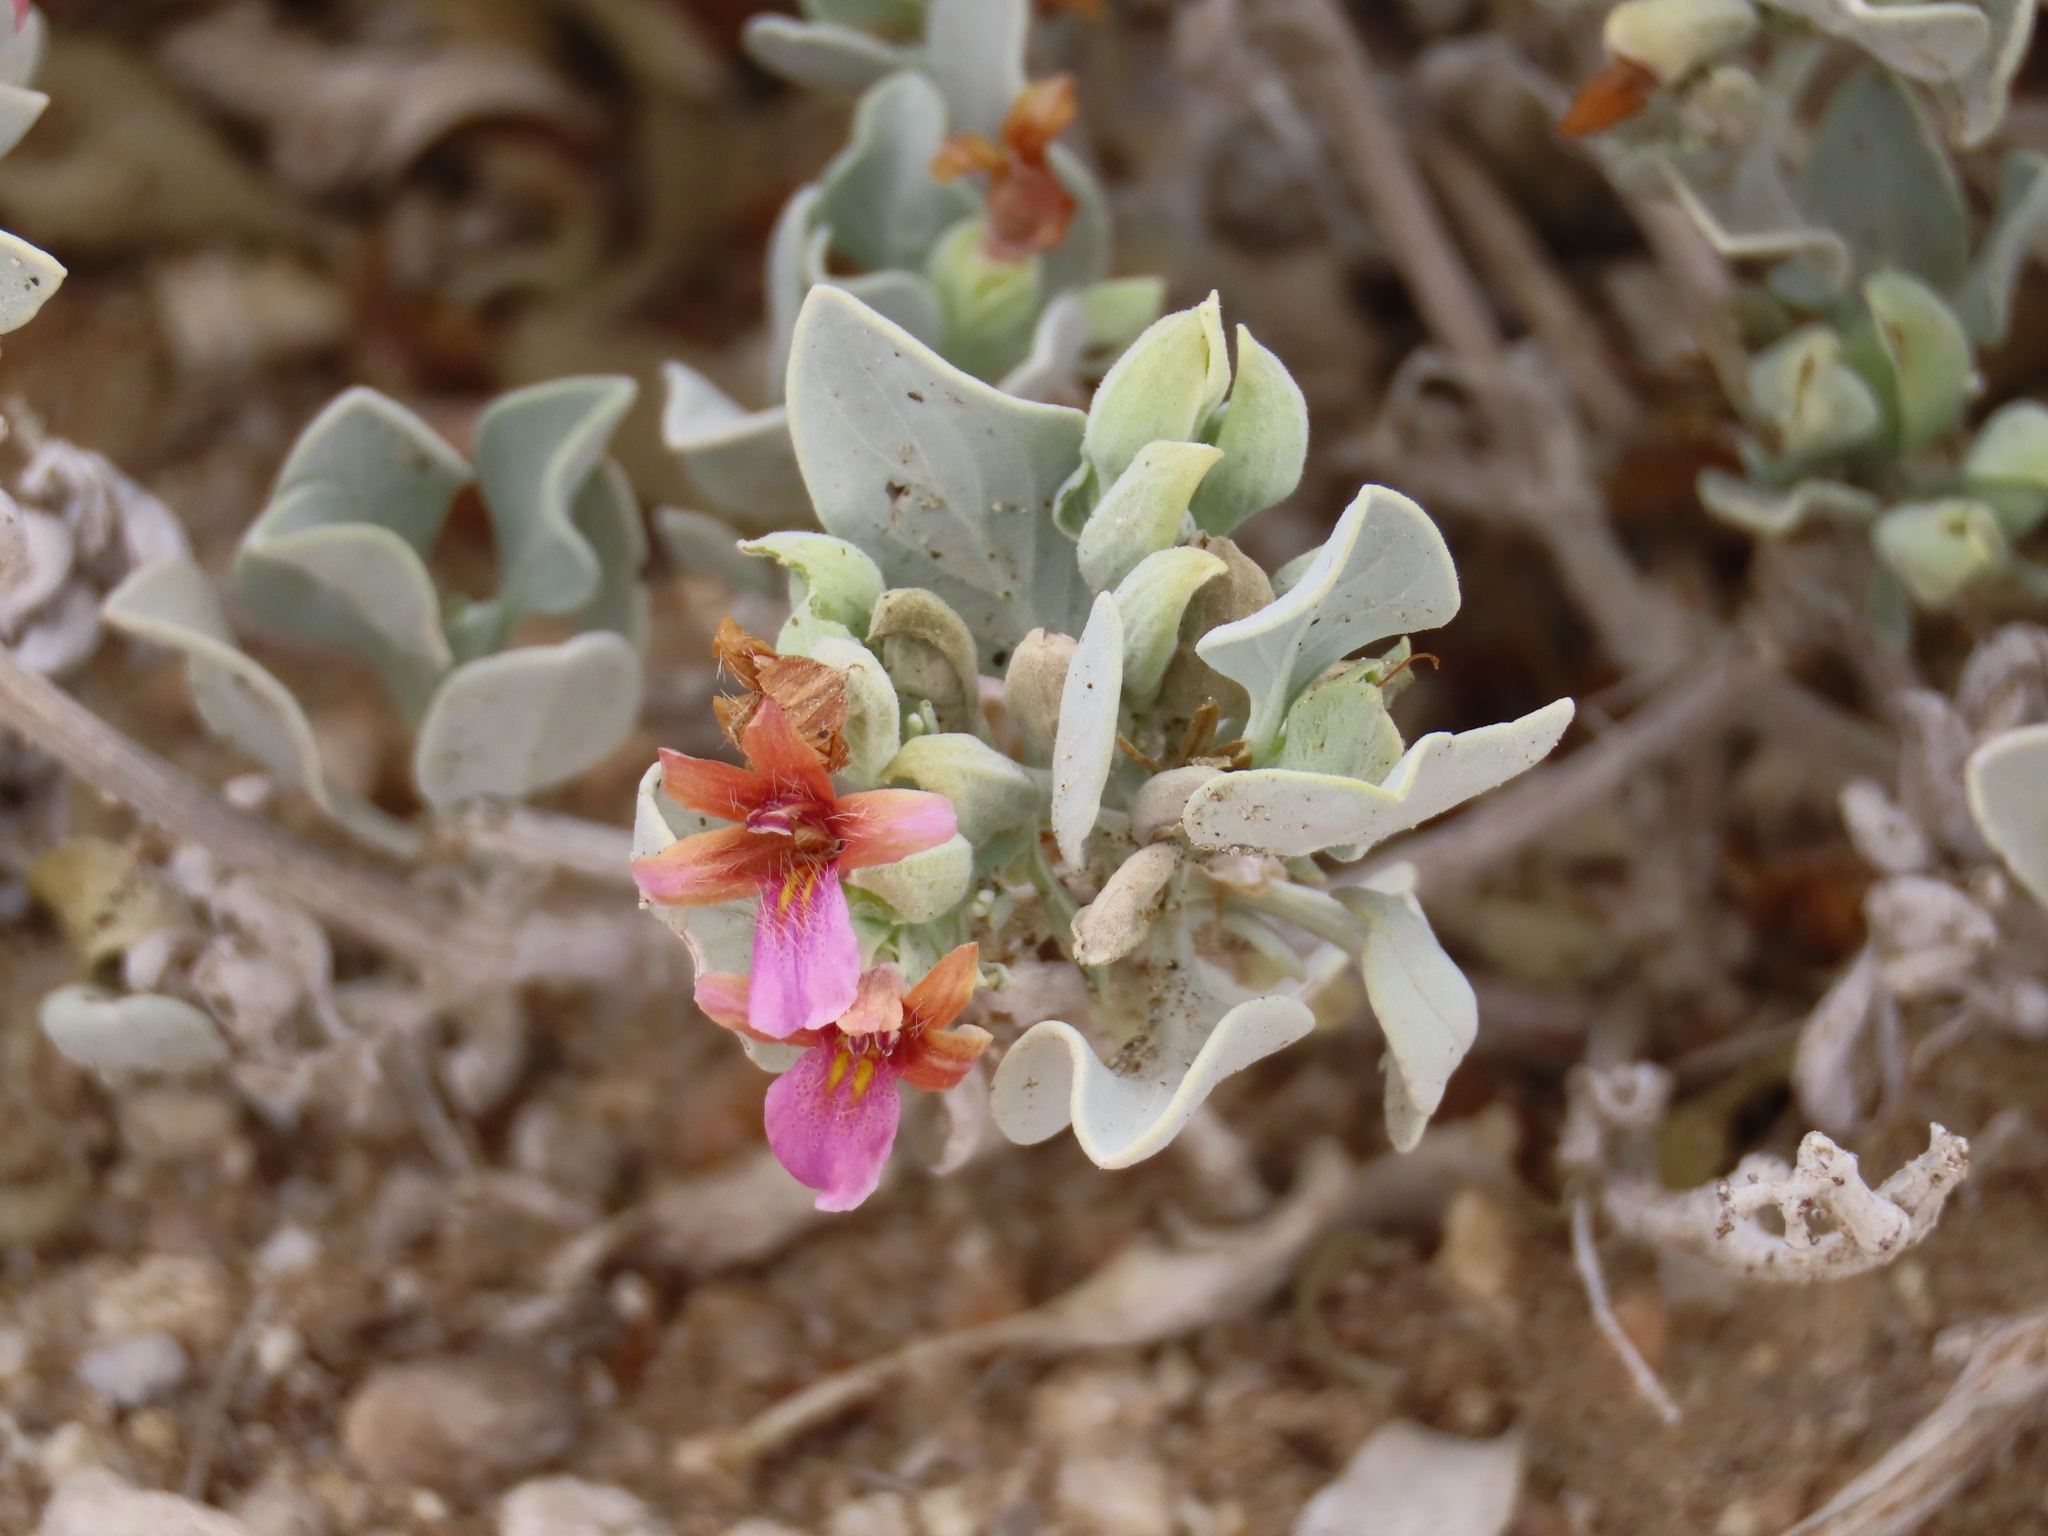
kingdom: Plantae
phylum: Tracheophyta
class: Magnoliopsida
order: Lamiales
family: Acanthaceae
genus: Petalidium
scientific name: Petalidium variabile
